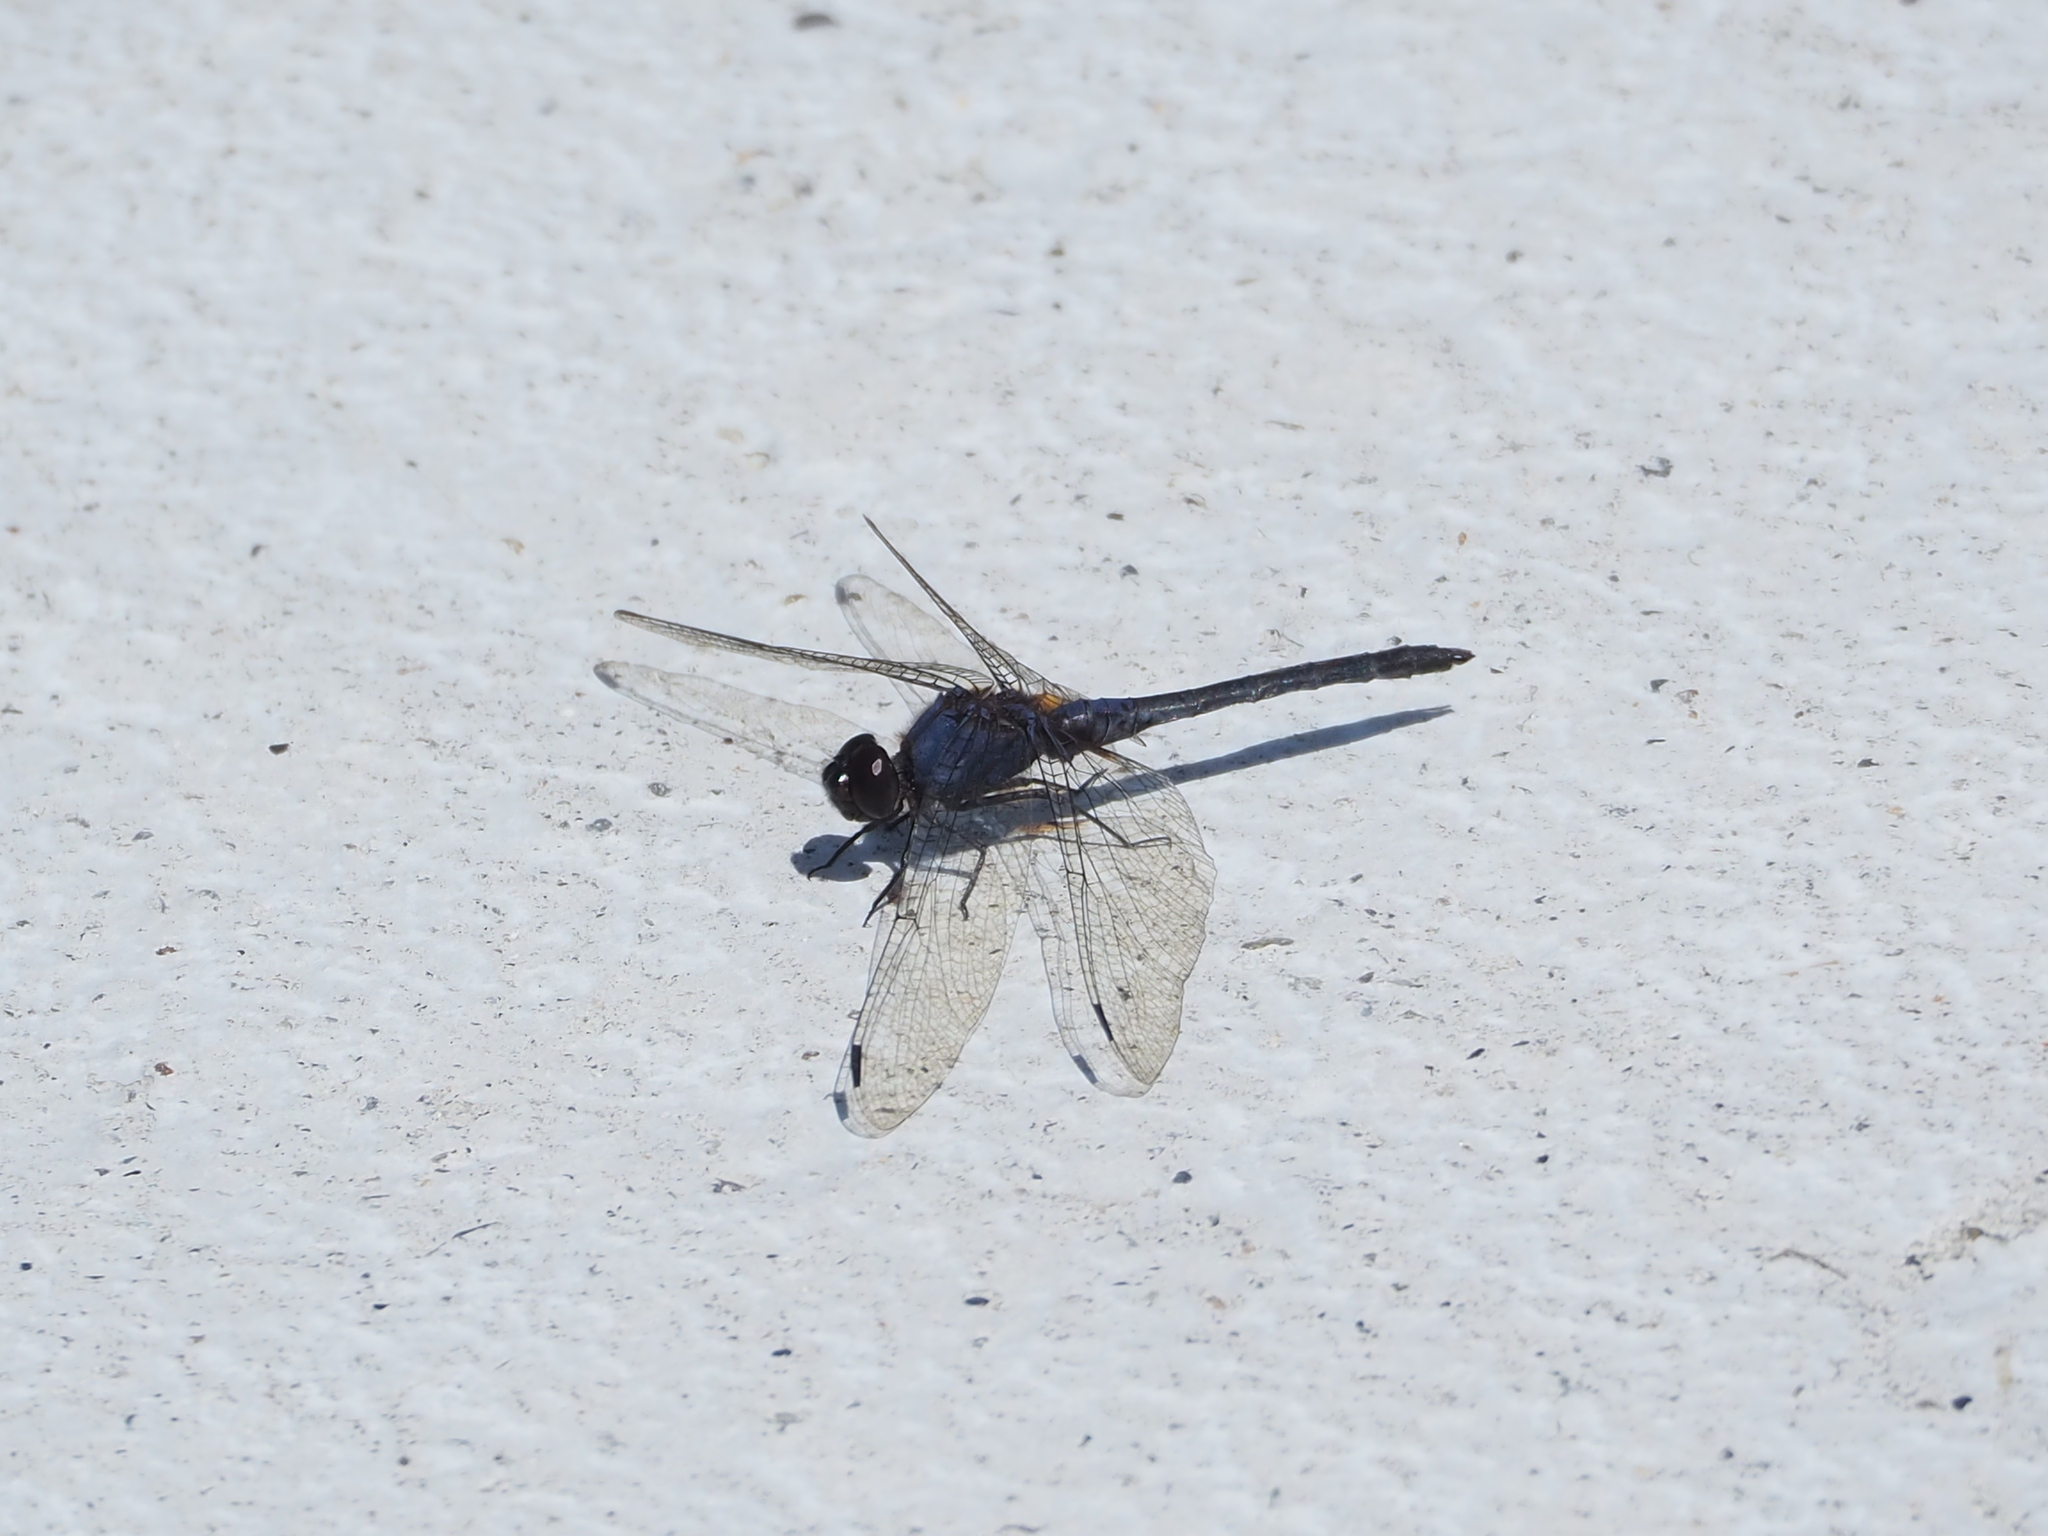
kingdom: Animalia
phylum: Arthropoda
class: Insecta
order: Odonata
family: Libellulidae
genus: Trithemis
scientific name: Trithemis festiva
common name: Indigo dropwing
